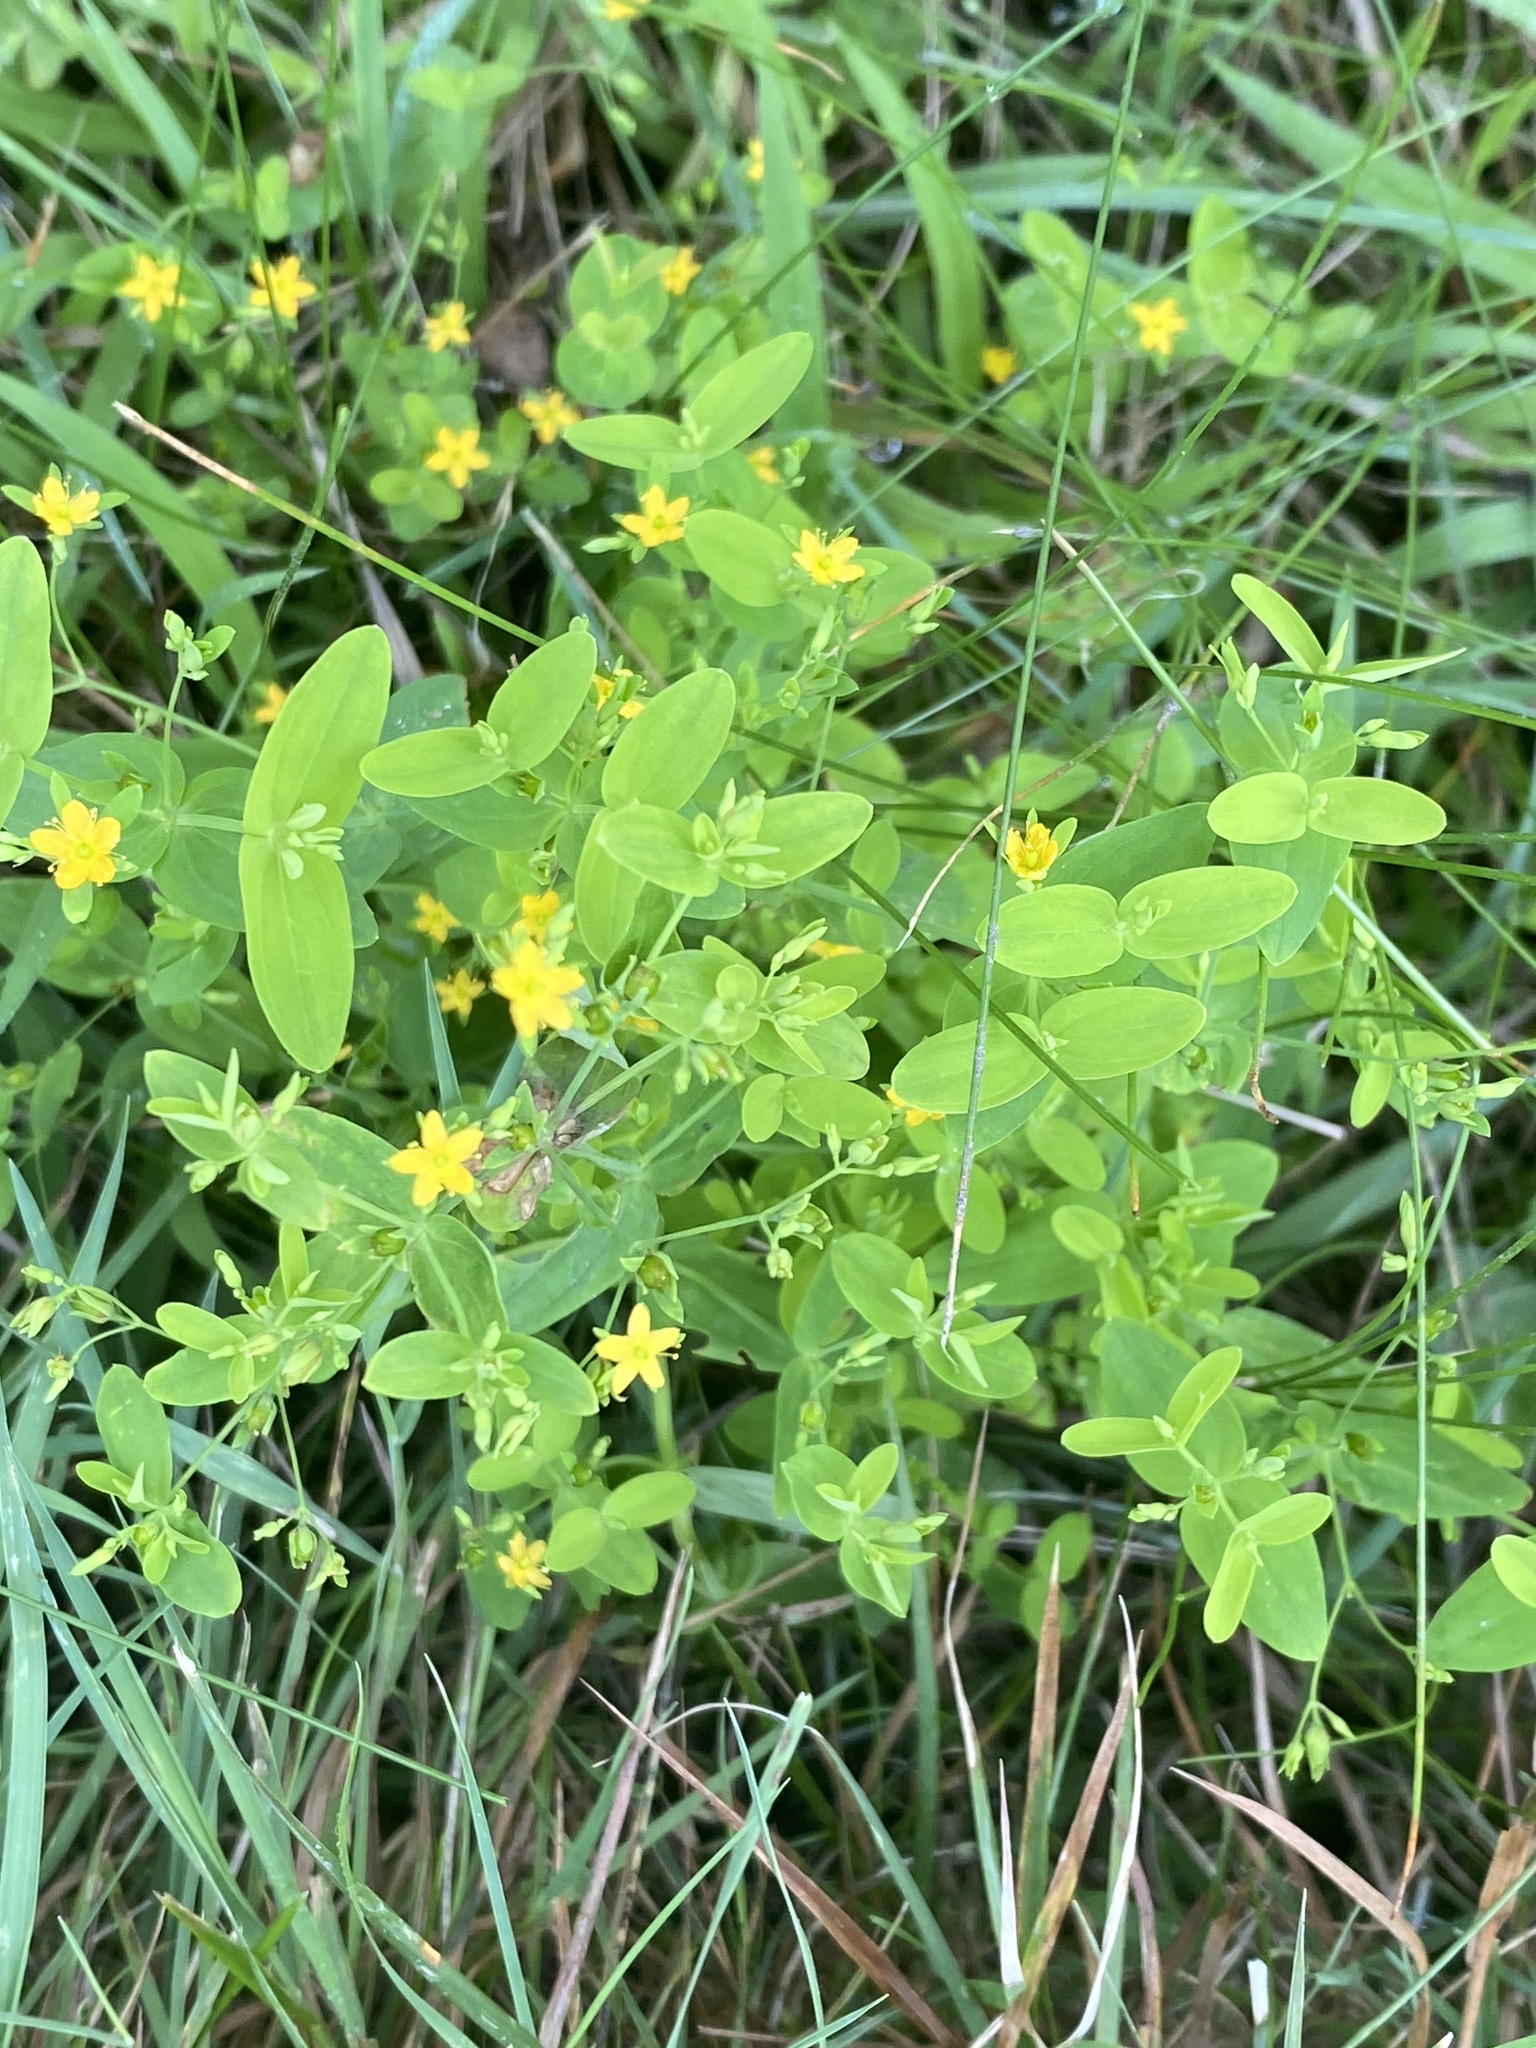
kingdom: Plantae
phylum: Tracheophyta
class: Magnoliopsida
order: Malpighiales
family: Hypericaceae
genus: Hypericum
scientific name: Hypericum mutilum
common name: Dwarf st. john's-wort
